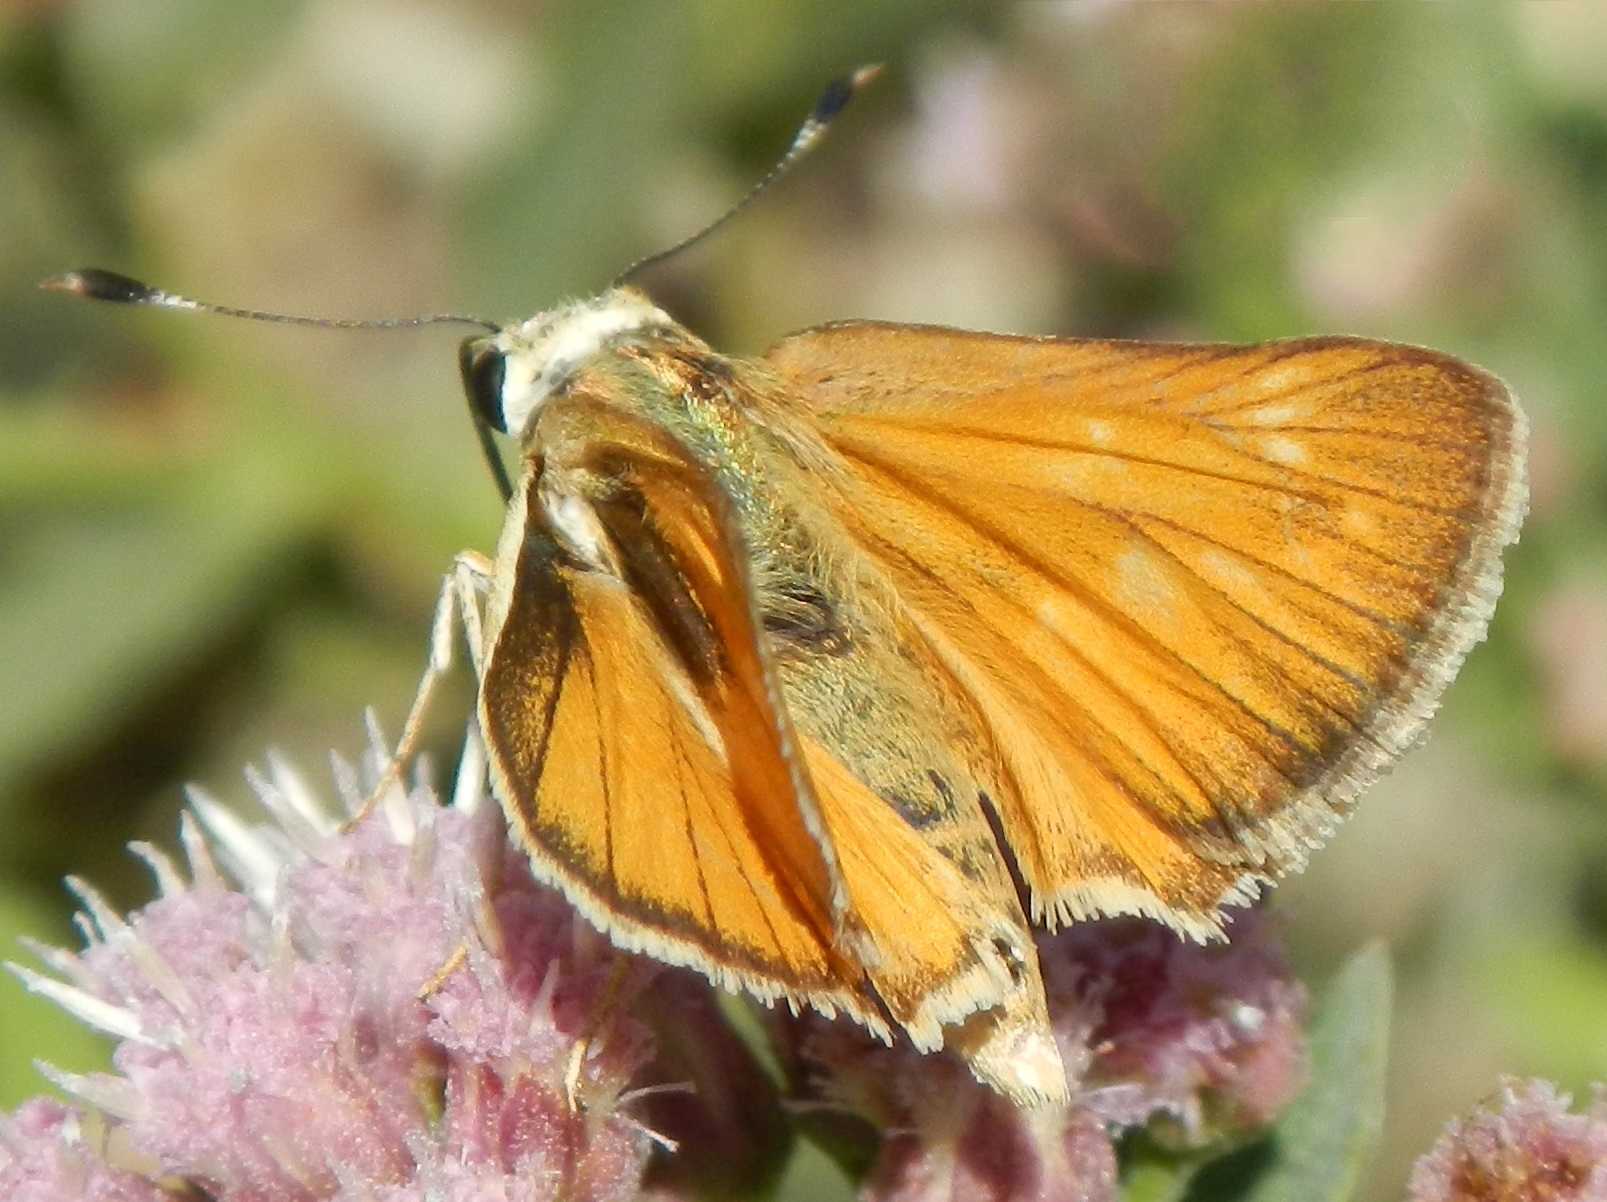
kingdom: Animalia
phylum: Arthropoda
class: Insecta
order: Lepidoptera
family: Hesperiidae
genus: Ochlodes
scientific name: Ochlodes sylvanoides
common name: Woodland skipper
